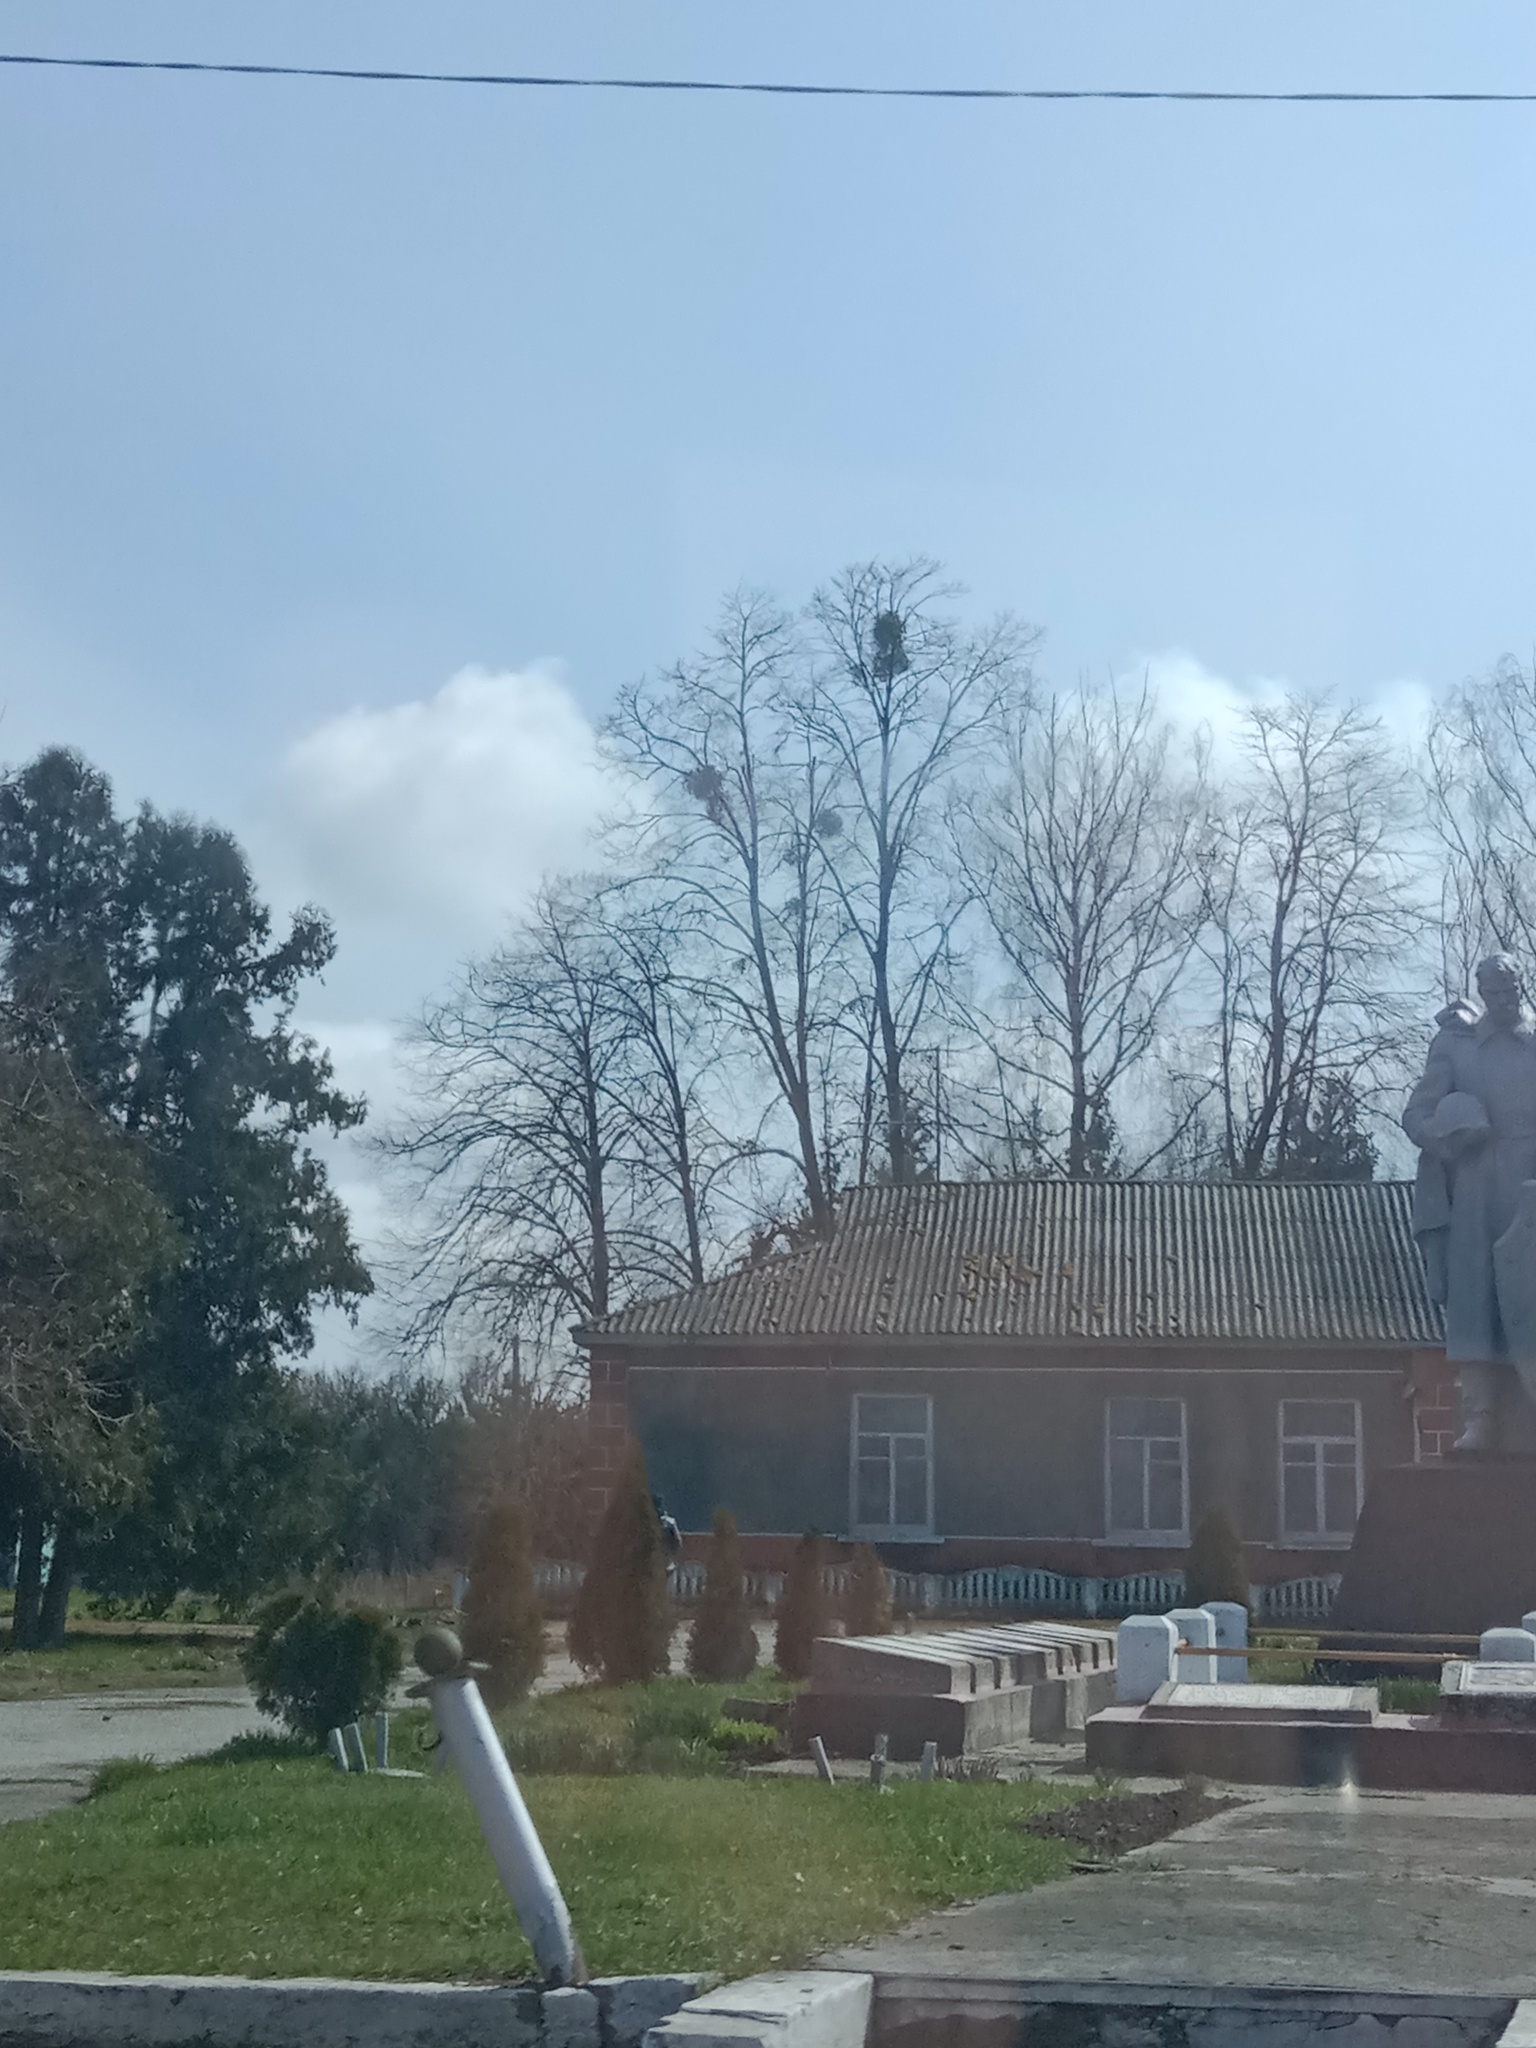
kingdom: Plantae
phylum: Tracheophyta
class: Magnoliopsida
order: Santalales
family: Viscaceae
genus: Viscum
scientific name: Viscum album
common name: Mistletoe
